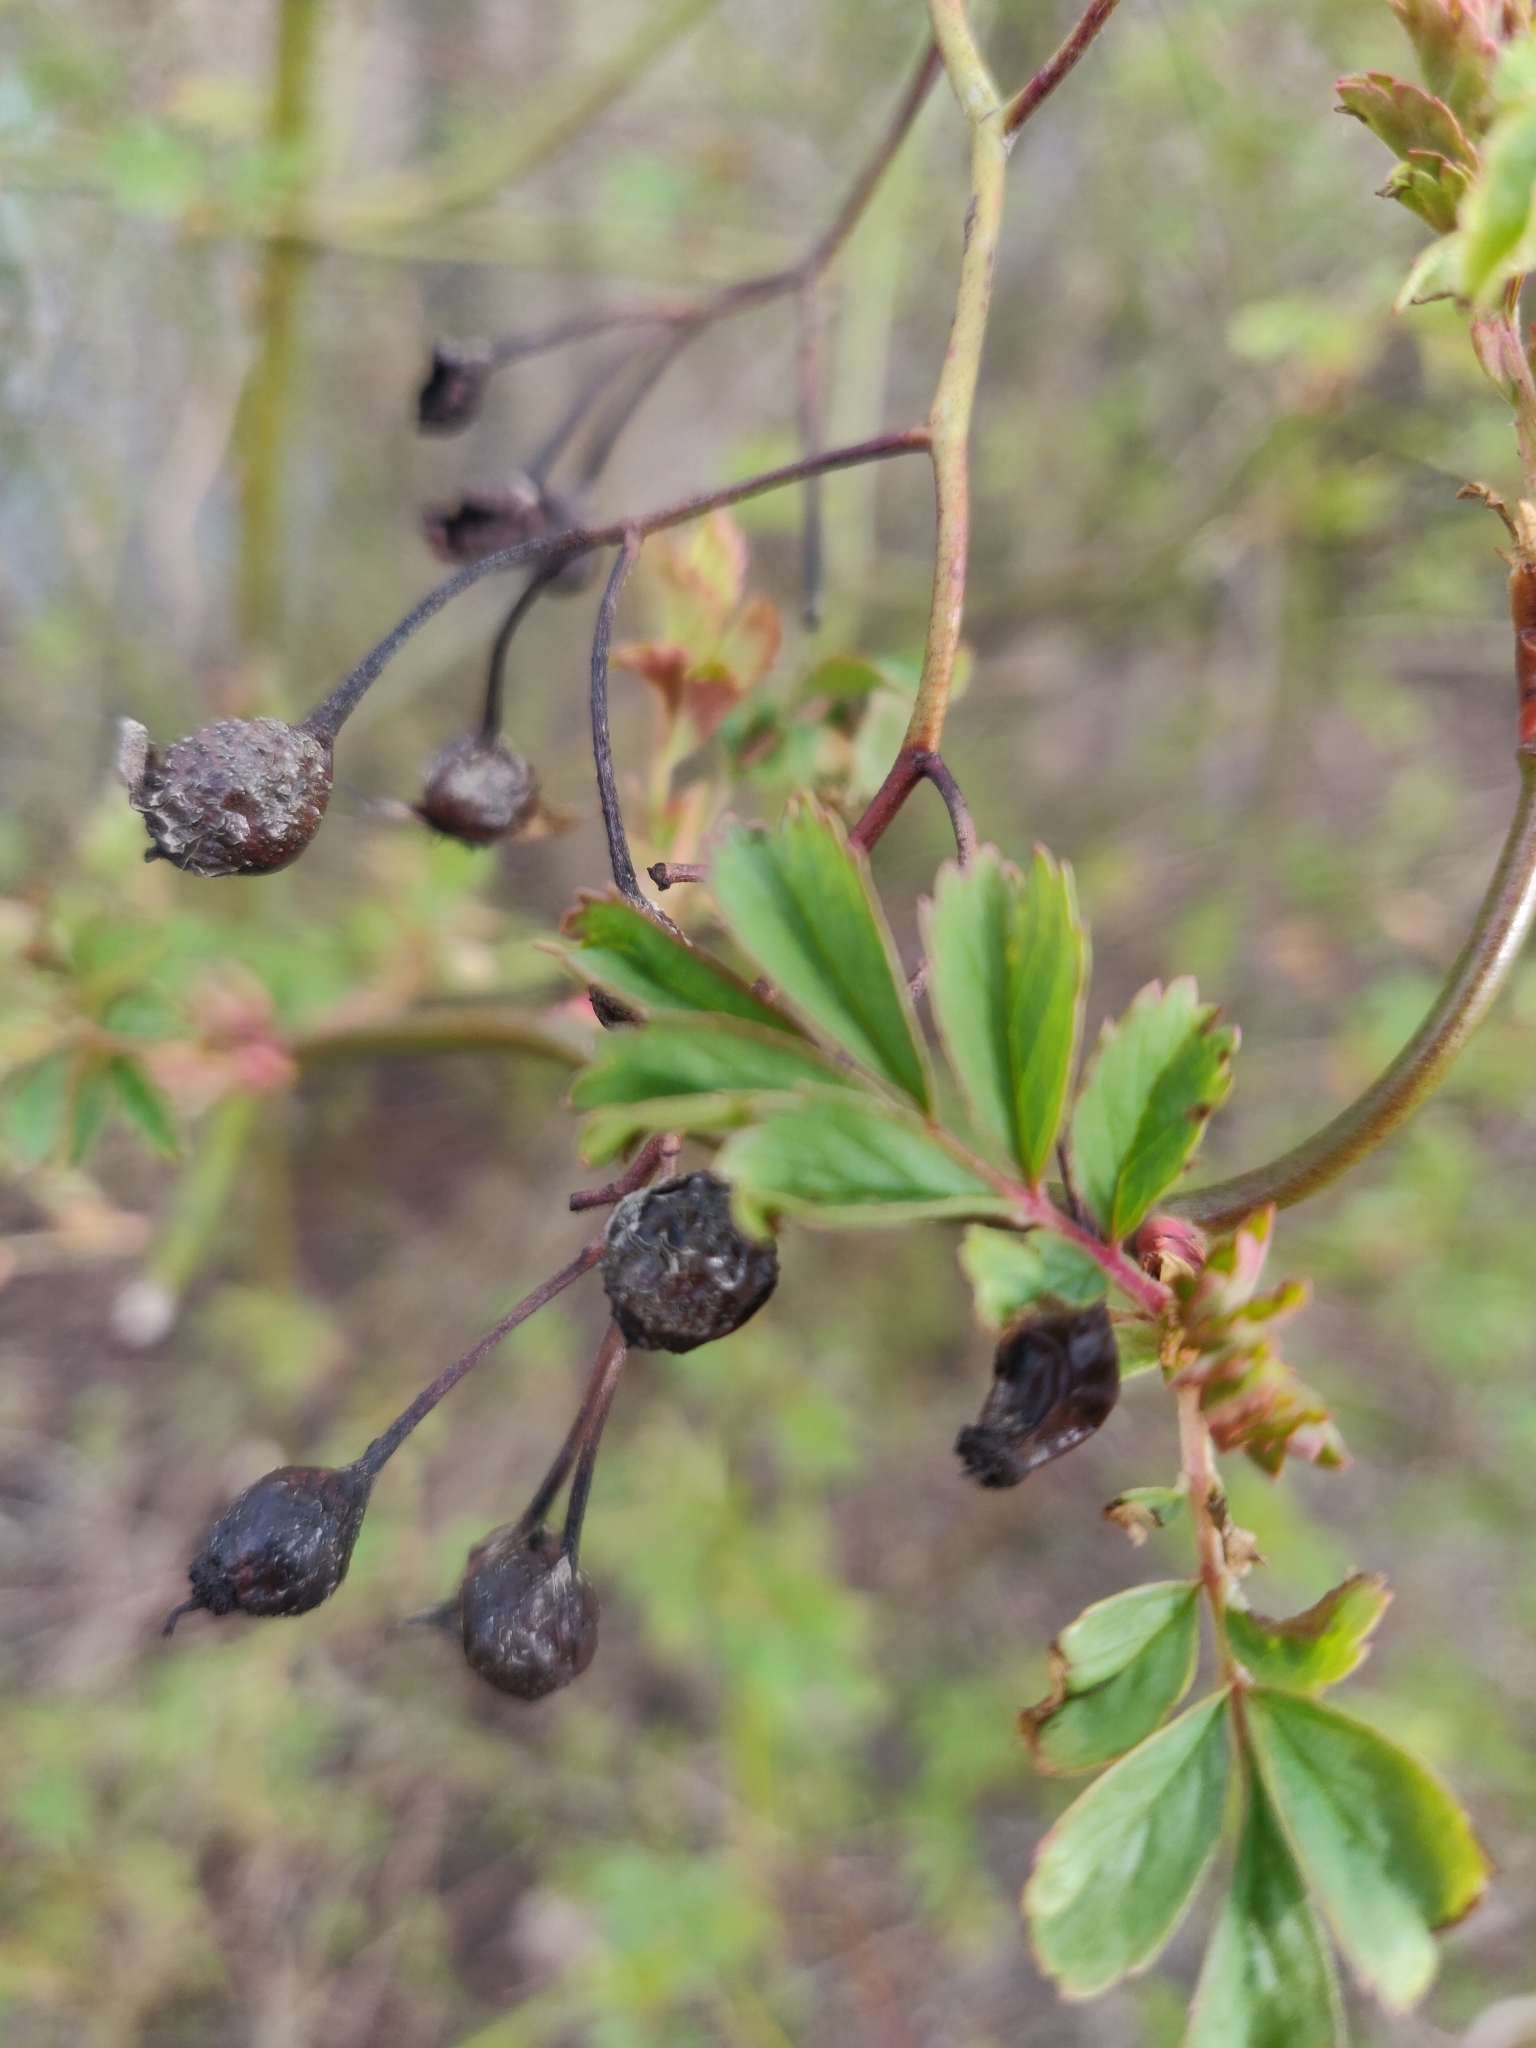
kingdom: Plantae
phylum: Tracheophyta
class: Magnoliopsida
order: Rosales
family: Rosaceae
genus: Rosa
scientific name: Rosa multiflora
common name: Multiflora rose
